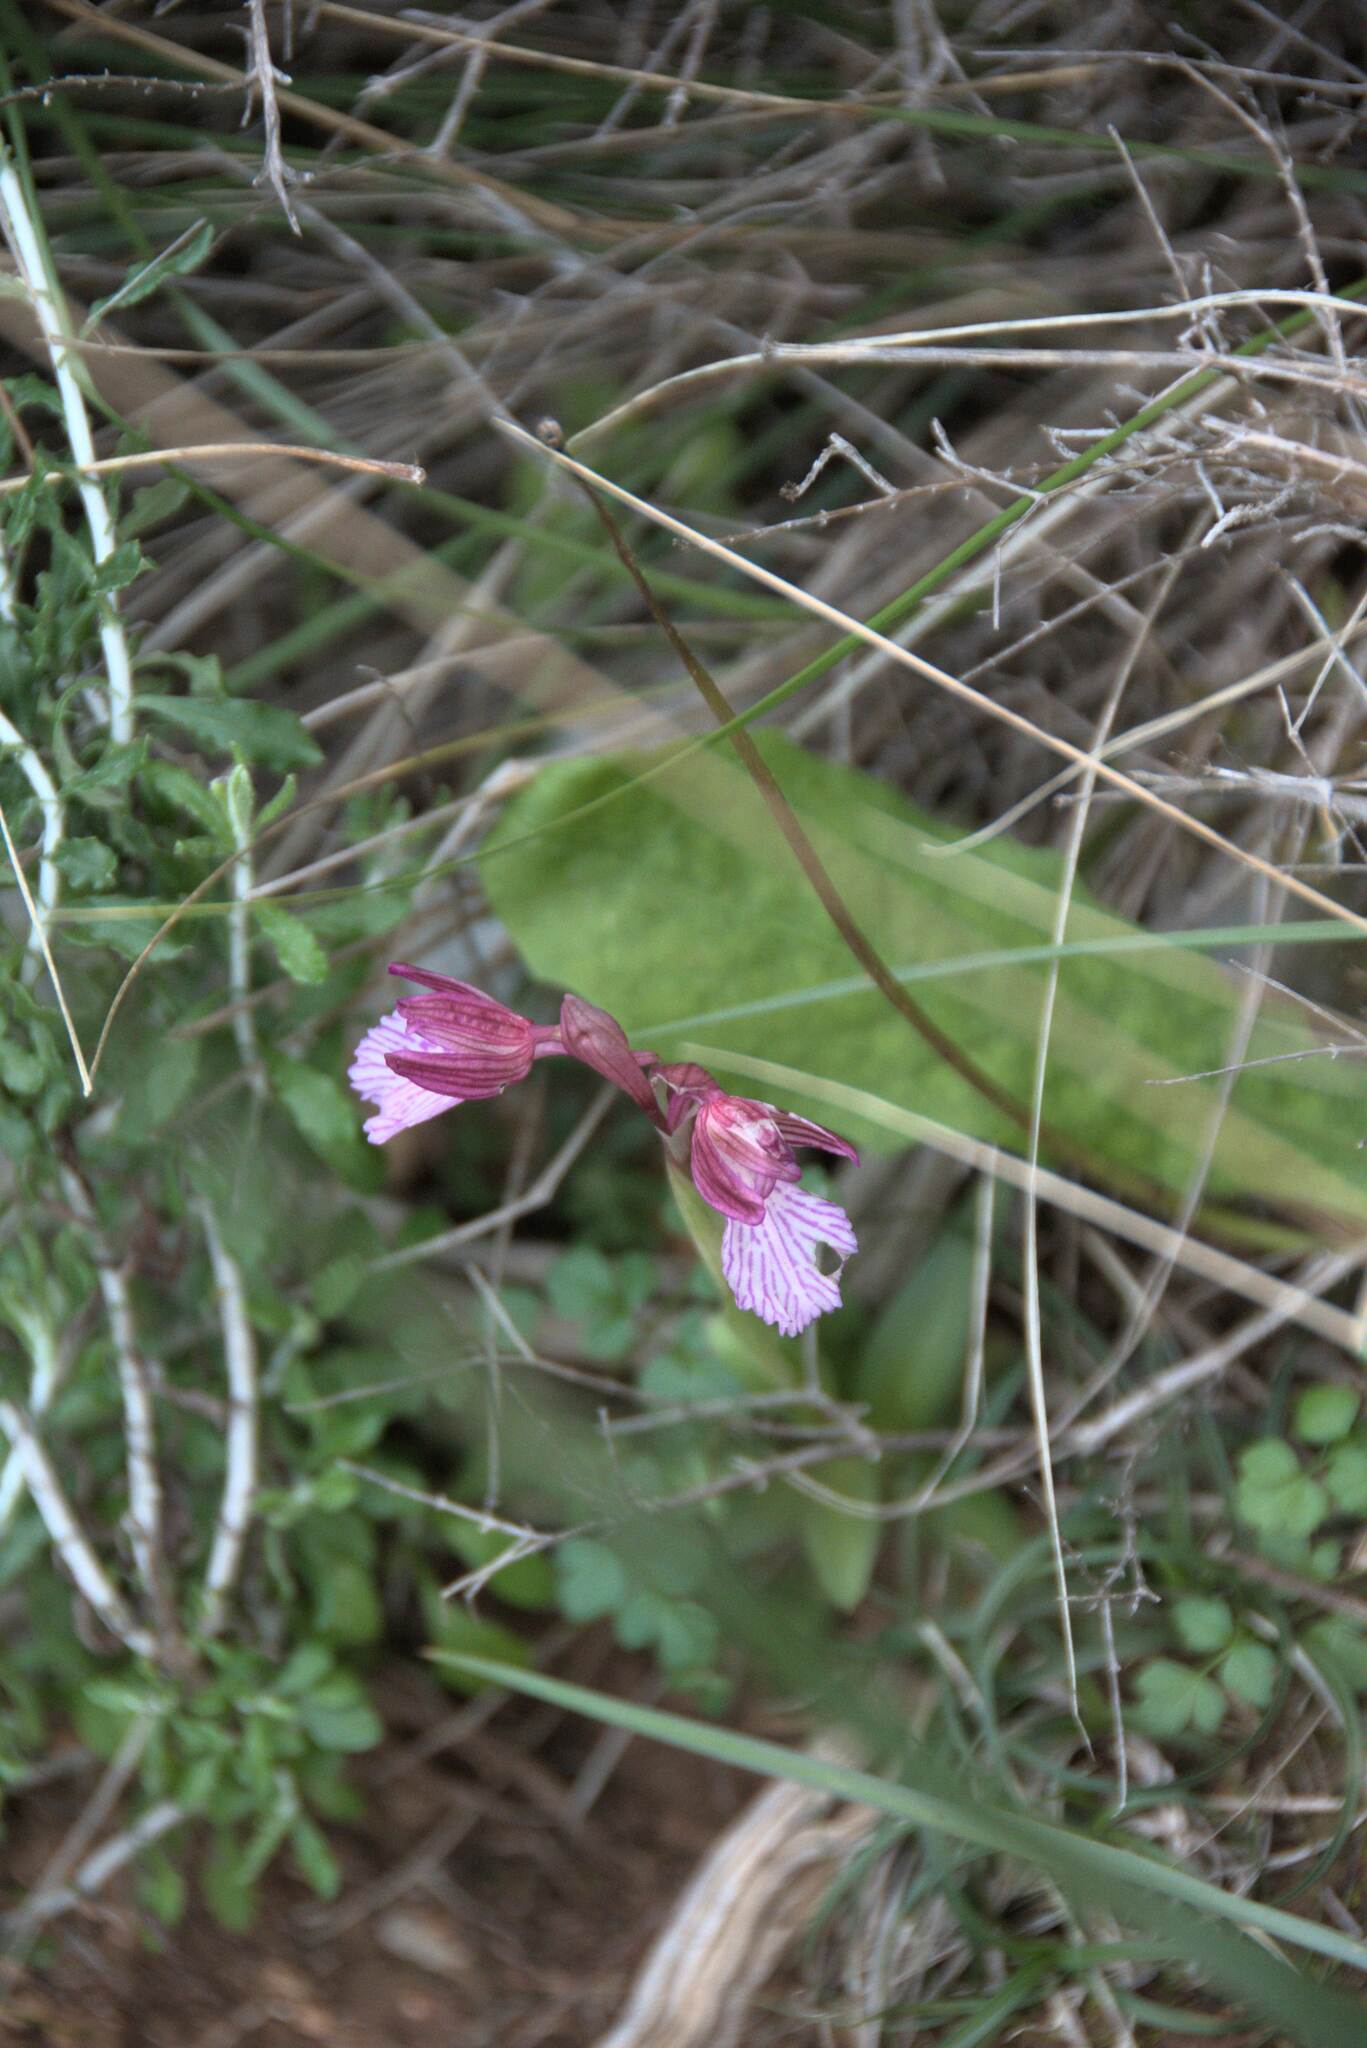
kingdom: Plantae
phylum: Tracheophyta
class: Liliopsida
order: Asparagales
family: Orchidaceae
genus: Anacamptis
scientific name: Anacamptis papilionacea
